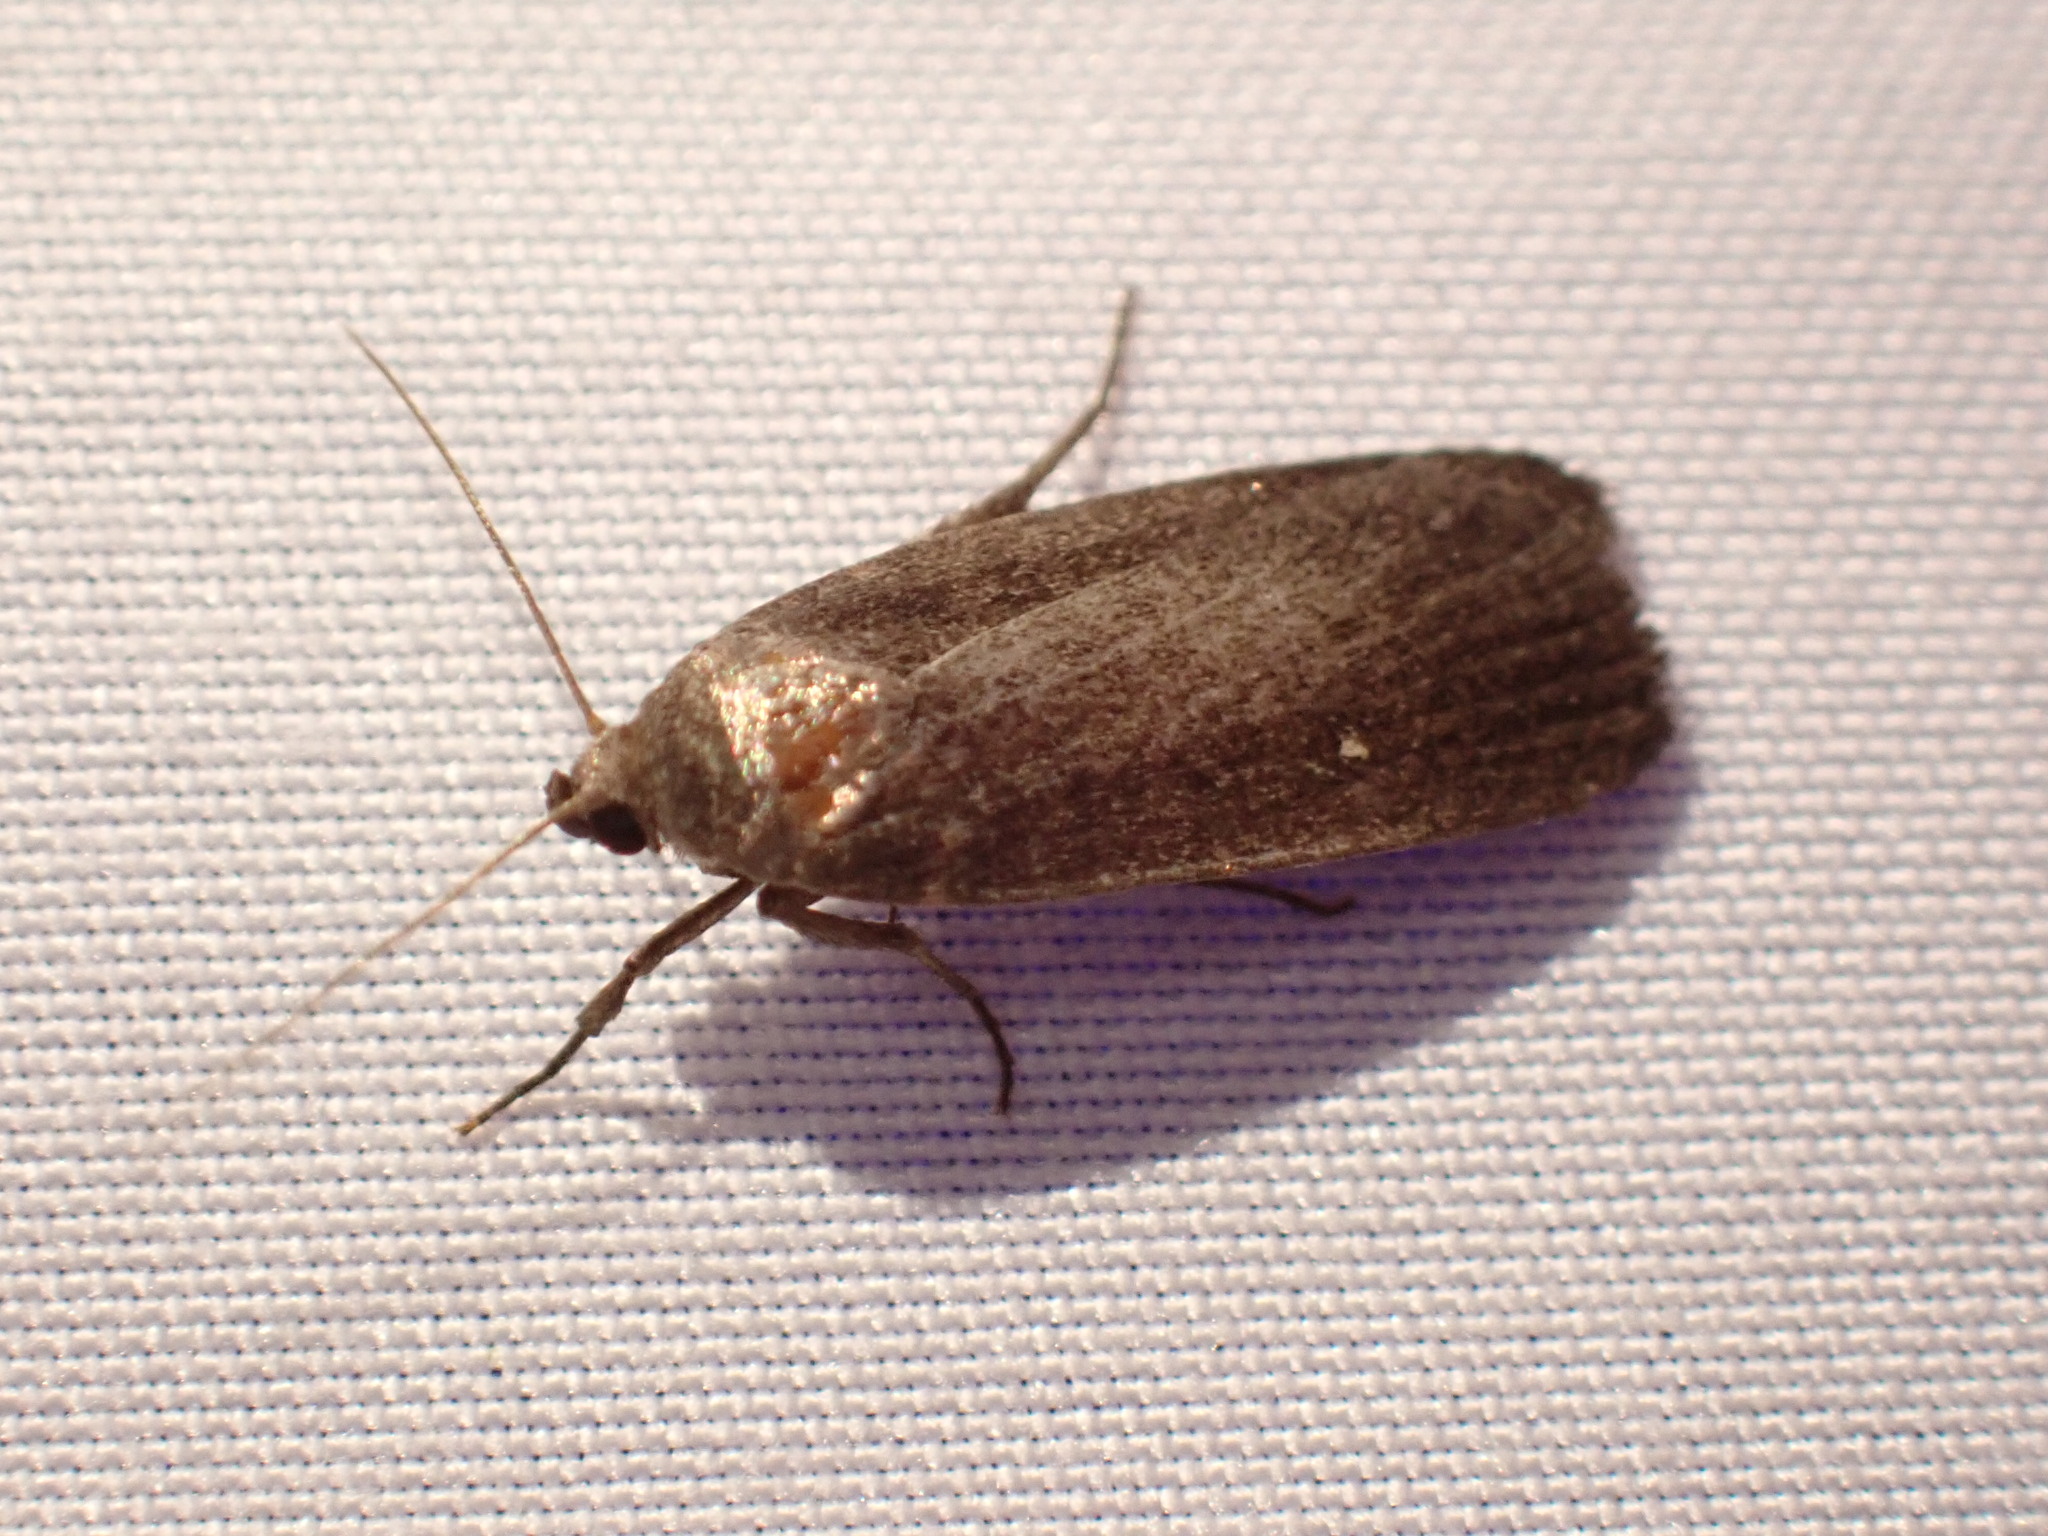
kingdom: Animalia
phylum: Arthropoda
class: Insecta
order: Lepidoptera
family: Noctuidae
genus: Proxenus
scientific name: Proxenus miranda
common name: Miranda moth
